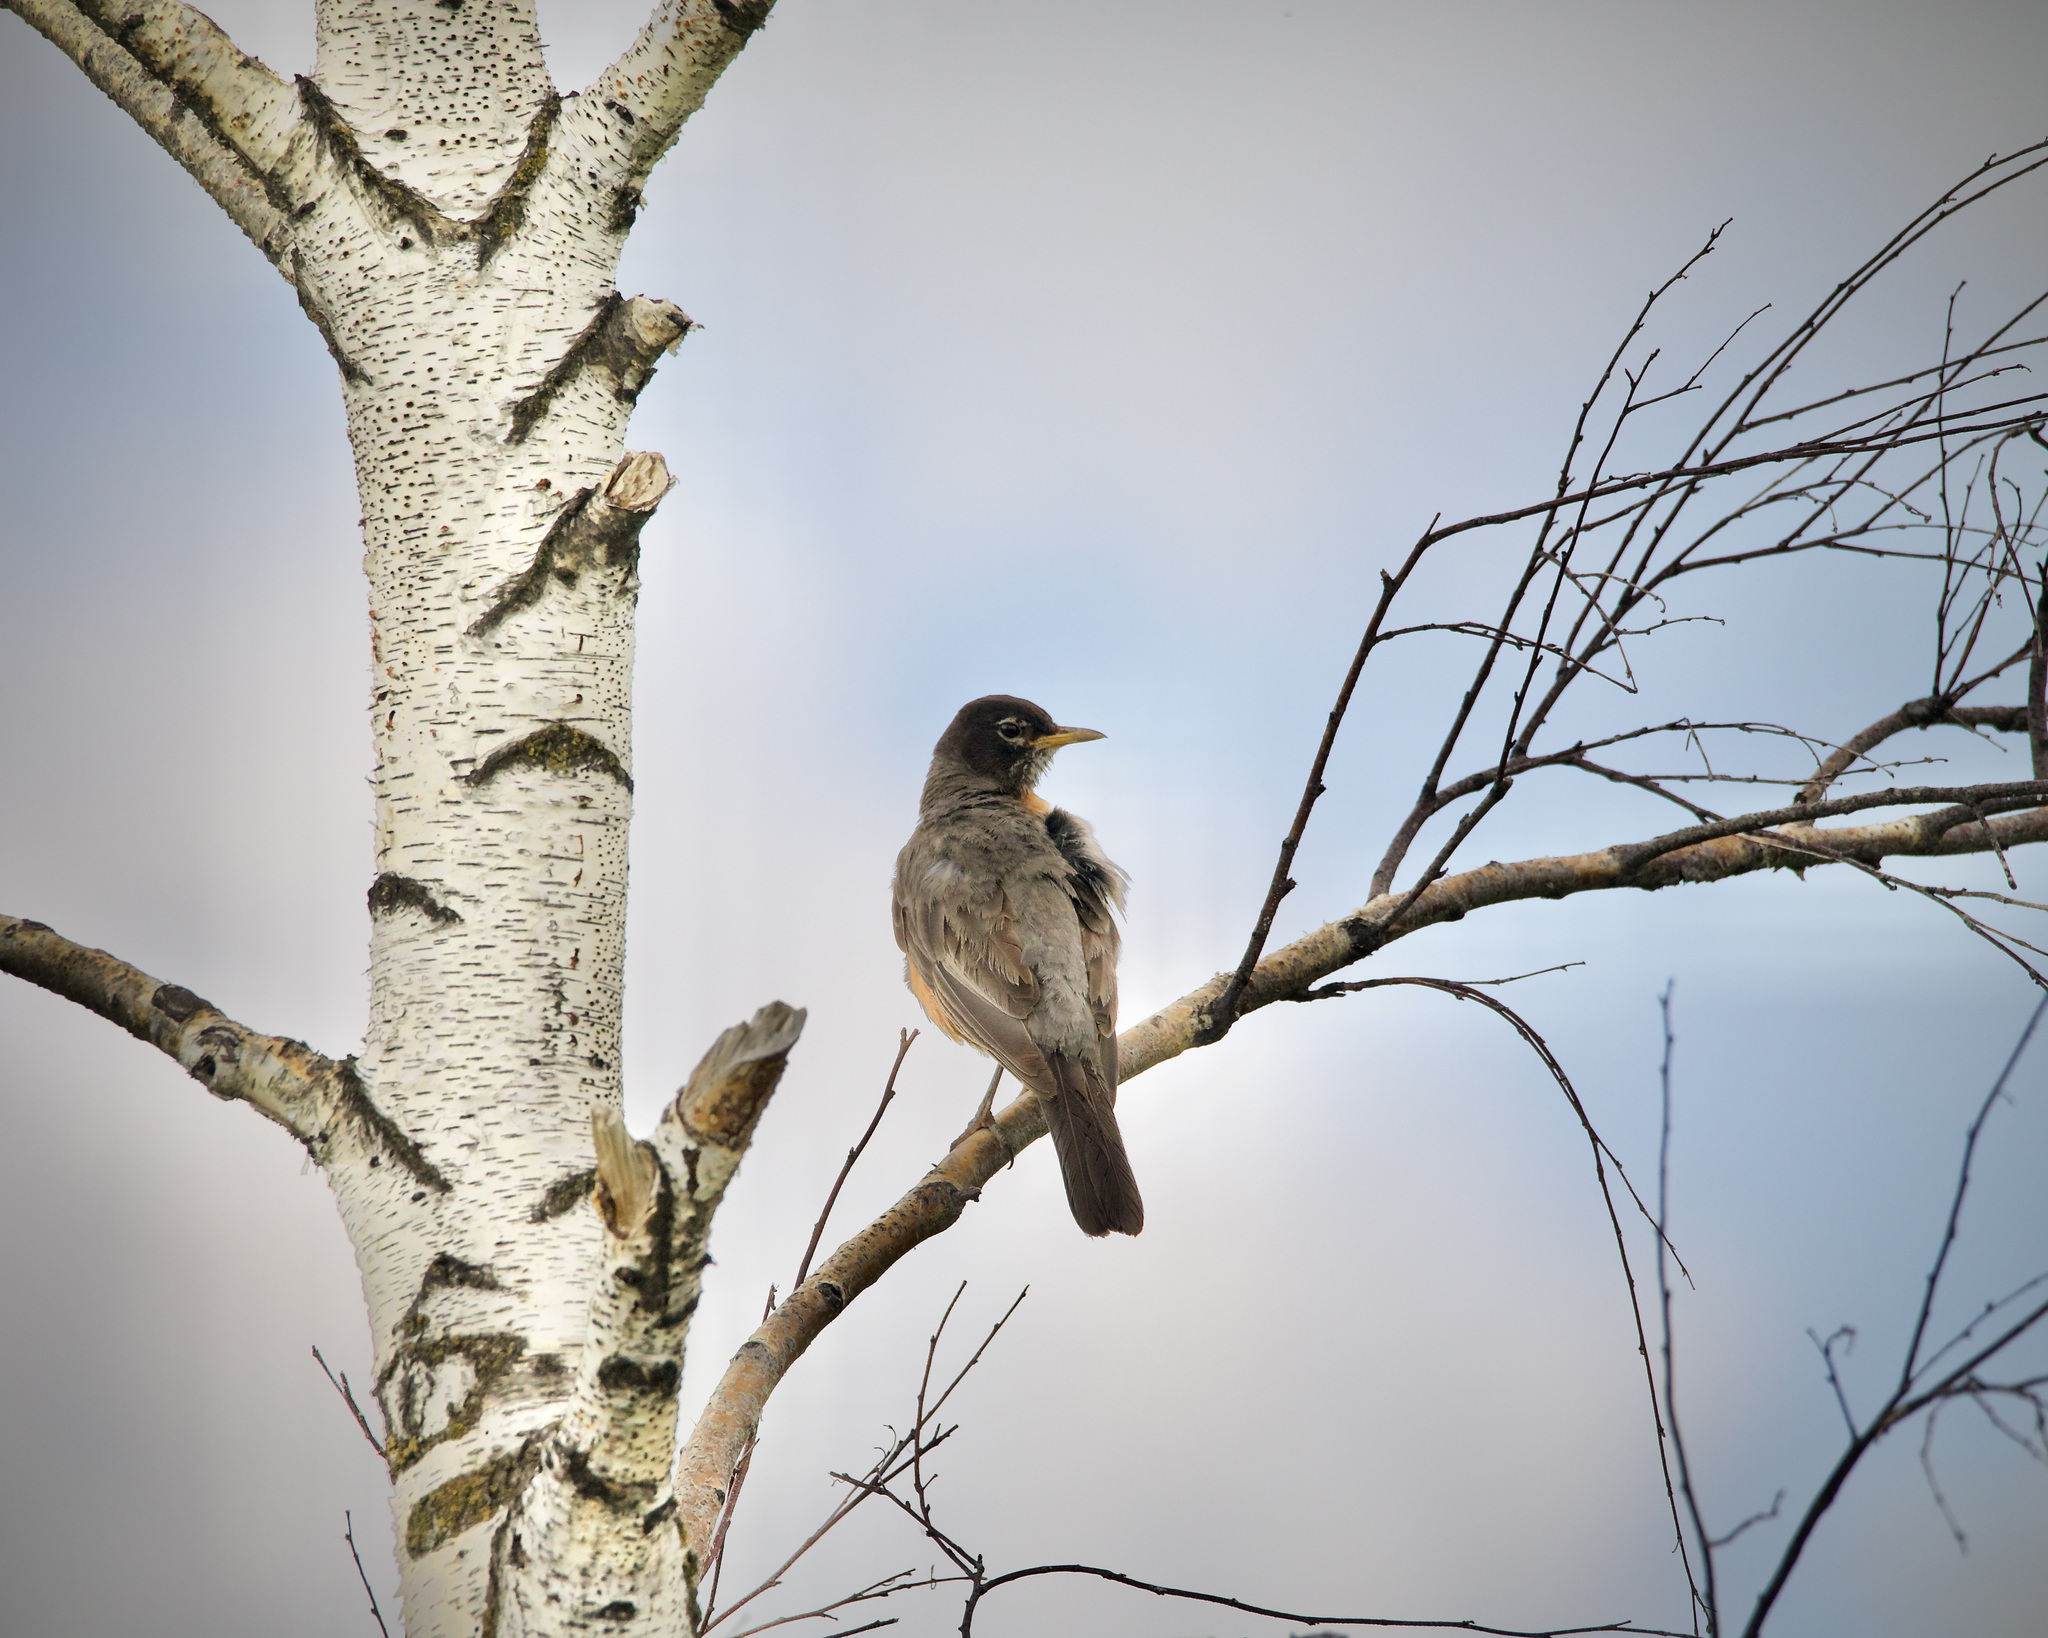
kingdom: Animalia
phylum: Chordata
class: Aves
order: Passeriformes
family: Turdidae
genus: Turdus
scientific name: Turdus migratorius
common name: American robin
